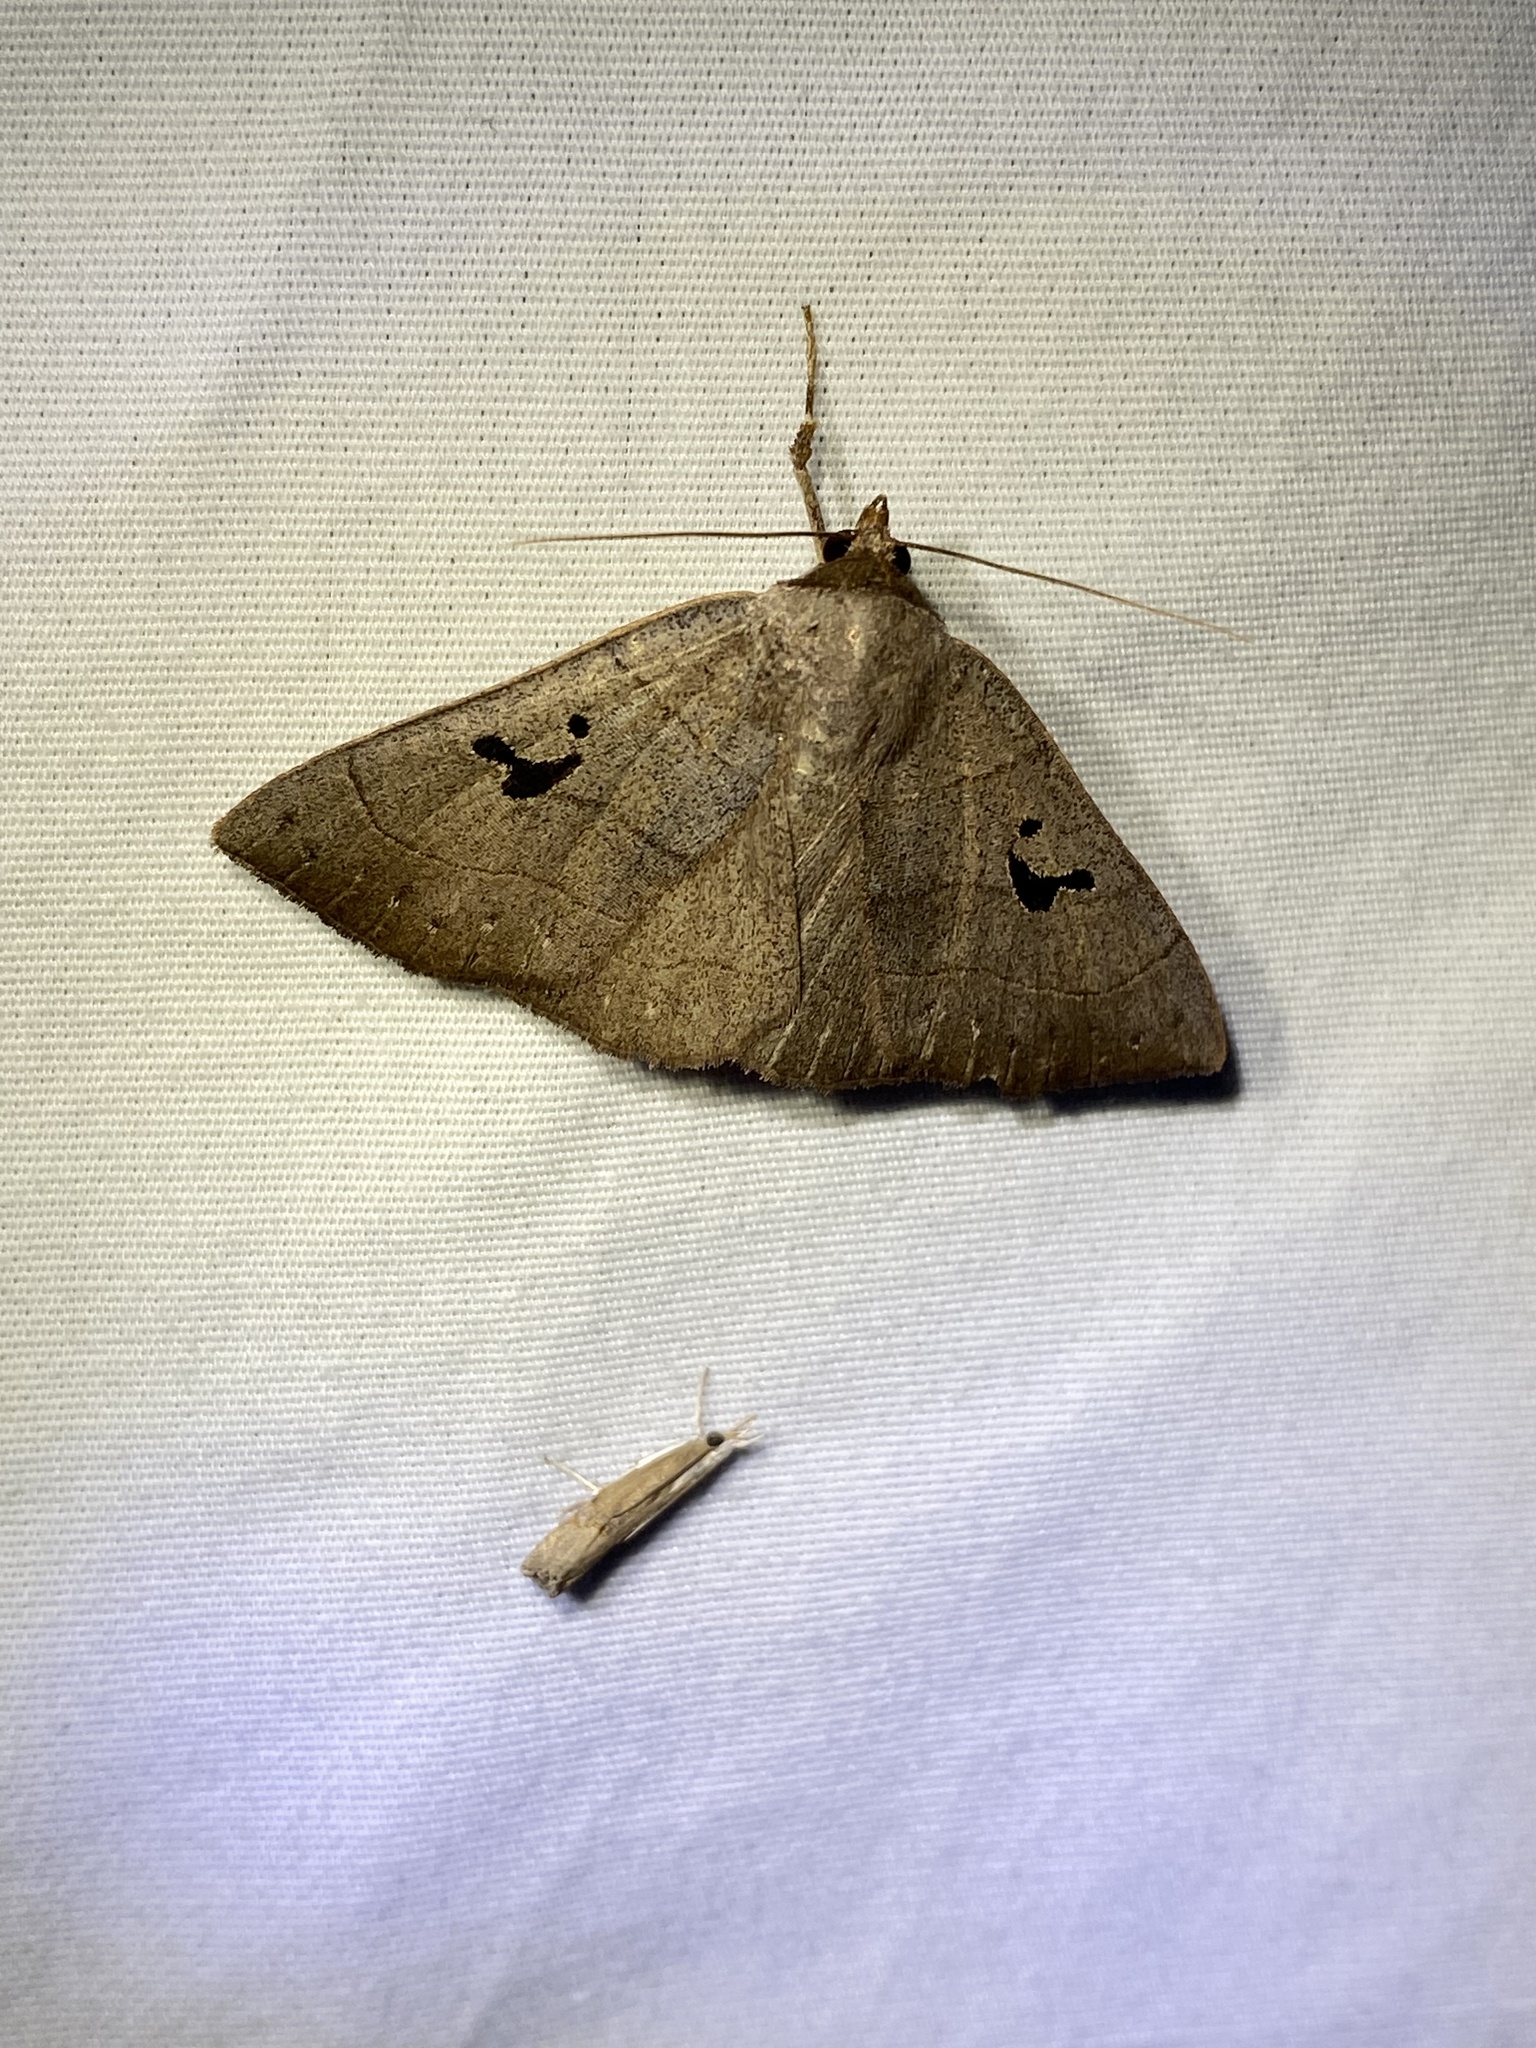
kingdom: Animalia
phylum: Arthropoda
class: Insecta
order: Lepidoptera
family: Erebidae
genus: Panopoda
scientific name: Panopoda carneicosta
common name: Brown panopoda moth
